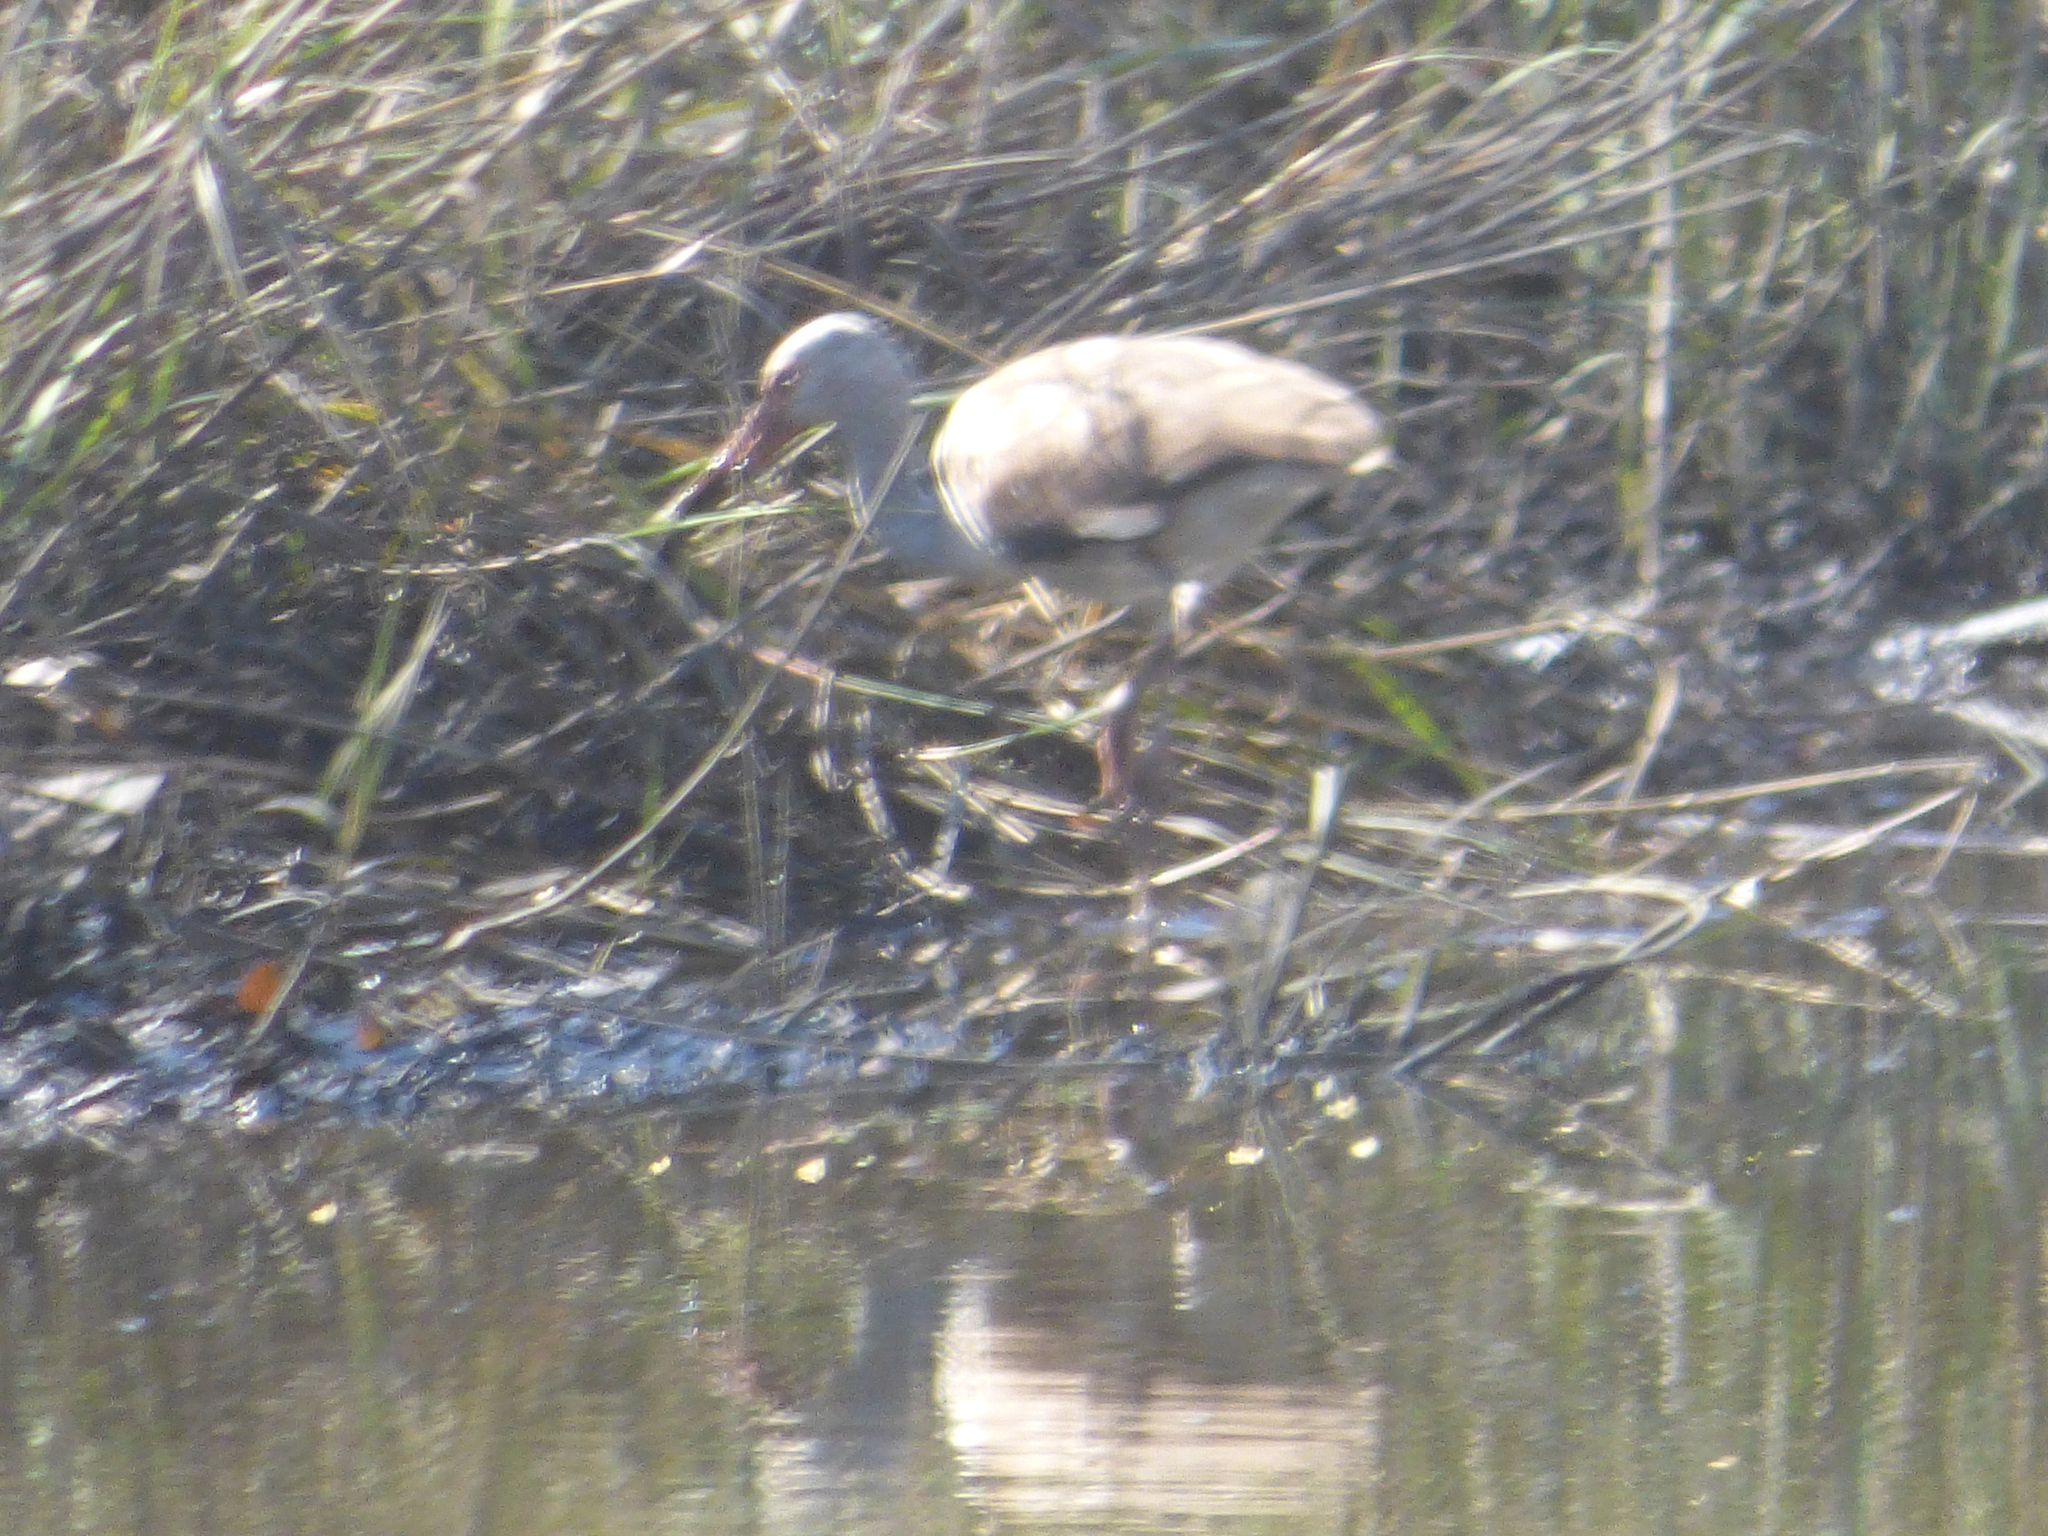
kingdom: Animalia
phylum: Chordata
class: Aves
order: Pelecaniformes
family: Threskiornithidae
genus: Eudocimus
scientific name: Eudocimus albus
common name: White ibis
